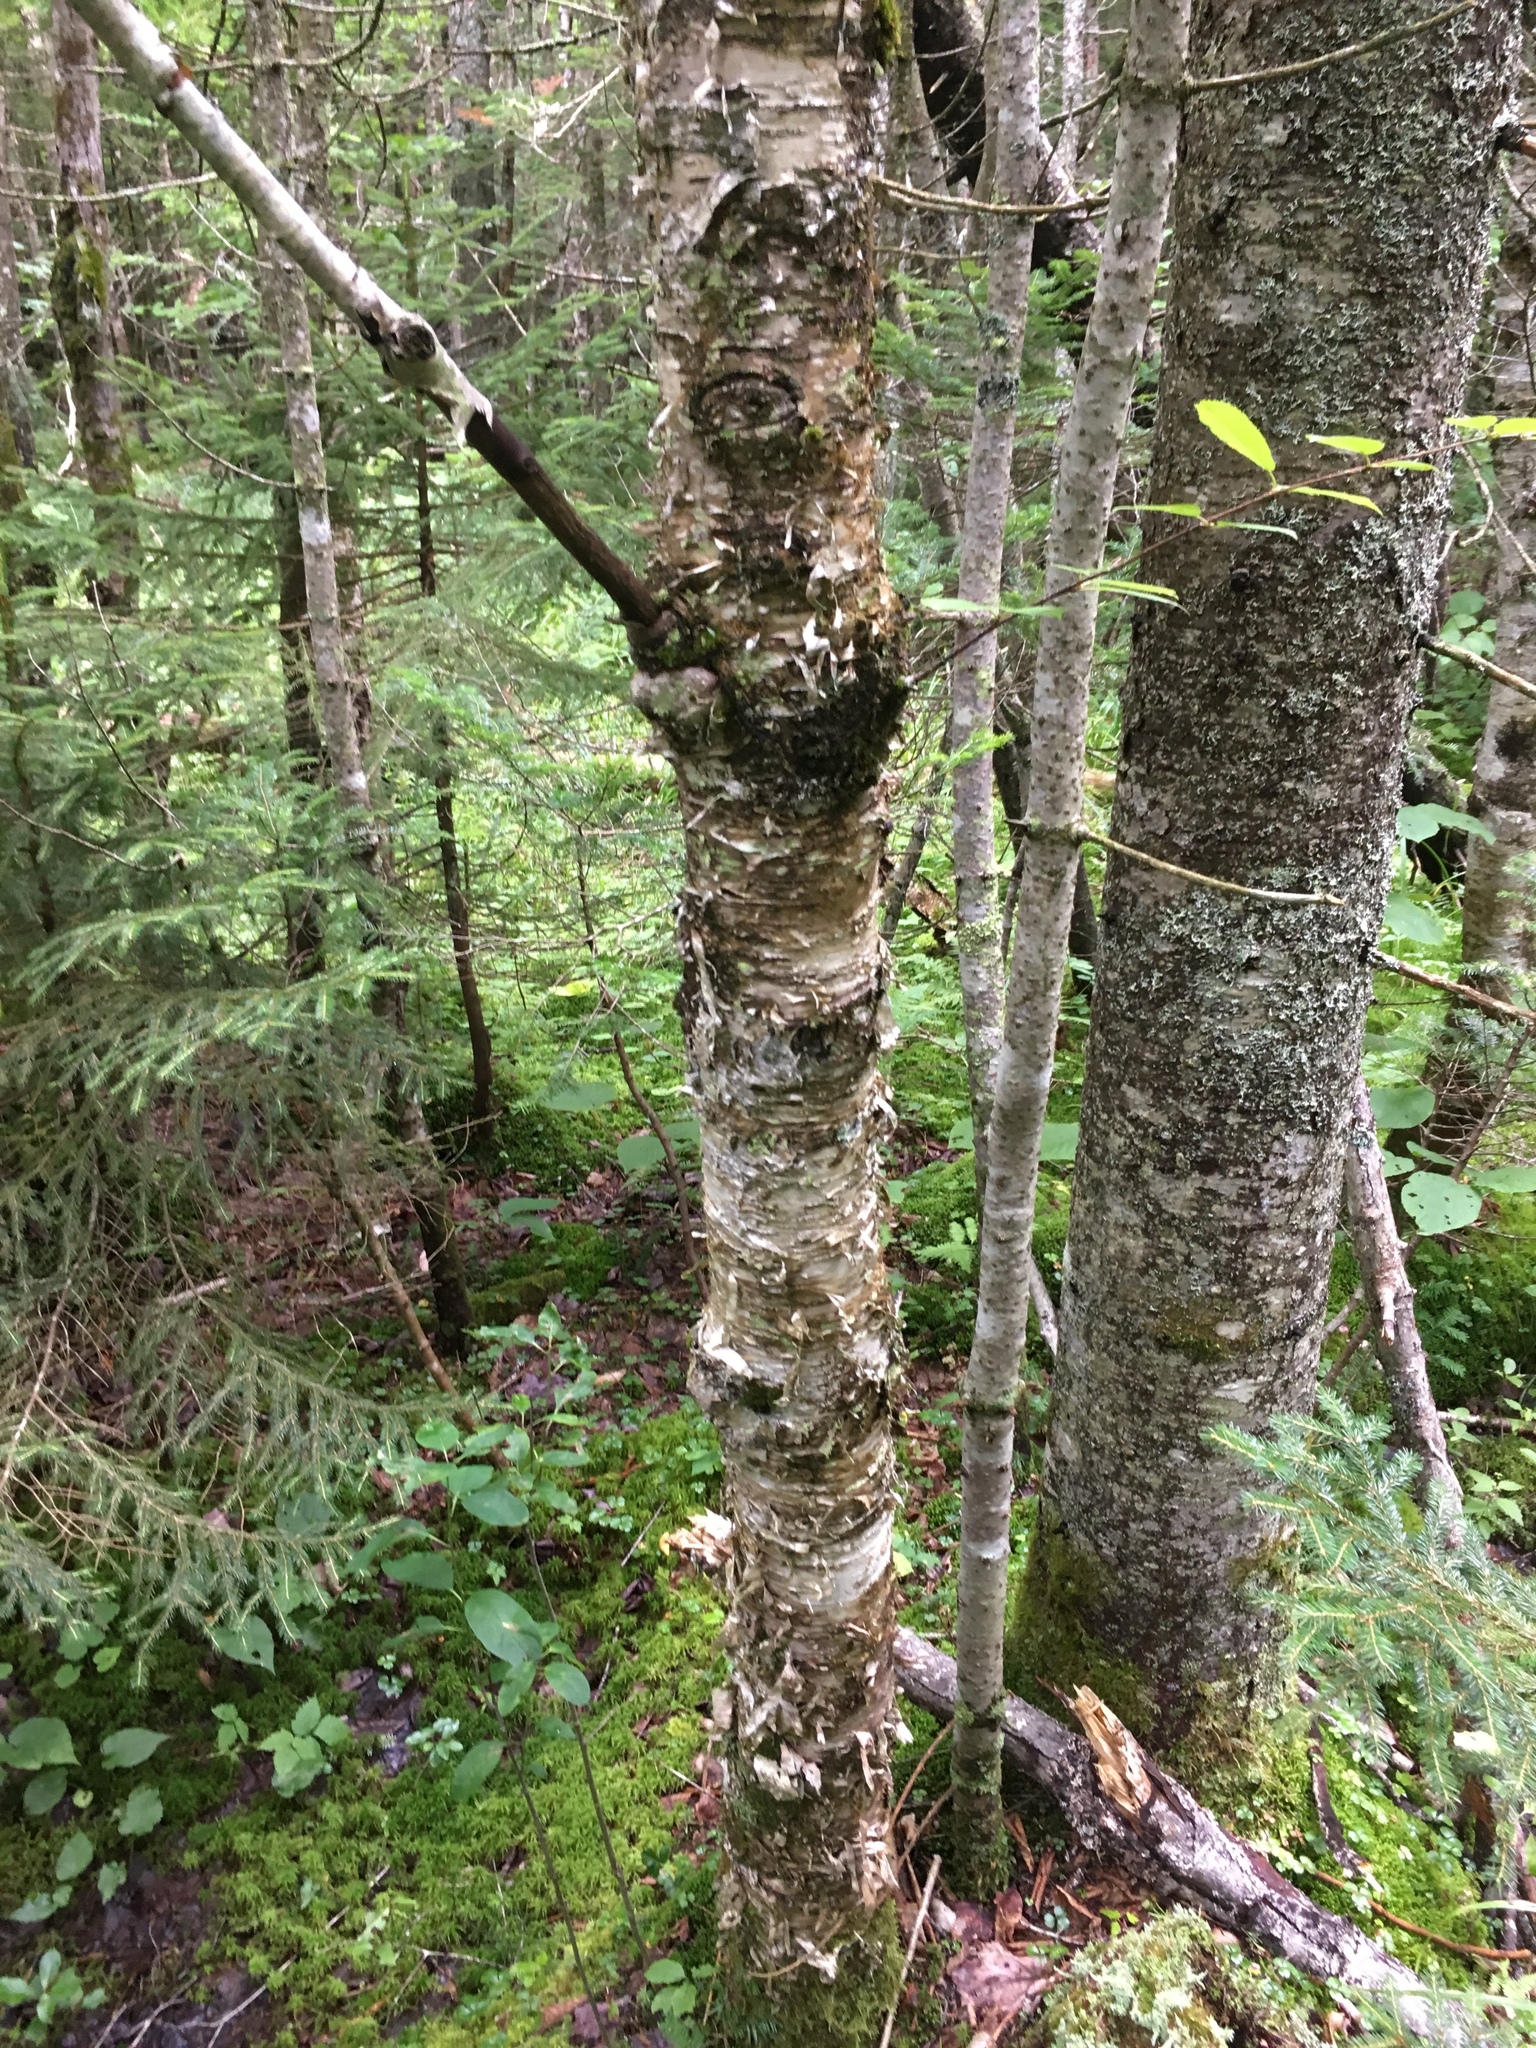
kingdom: Plantae
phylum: Tracheophyta
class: Magnoliopsida
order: Fagales
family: Betulaceae
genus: Betula
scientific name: Betula alleghaniensis
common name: Yellow birch
